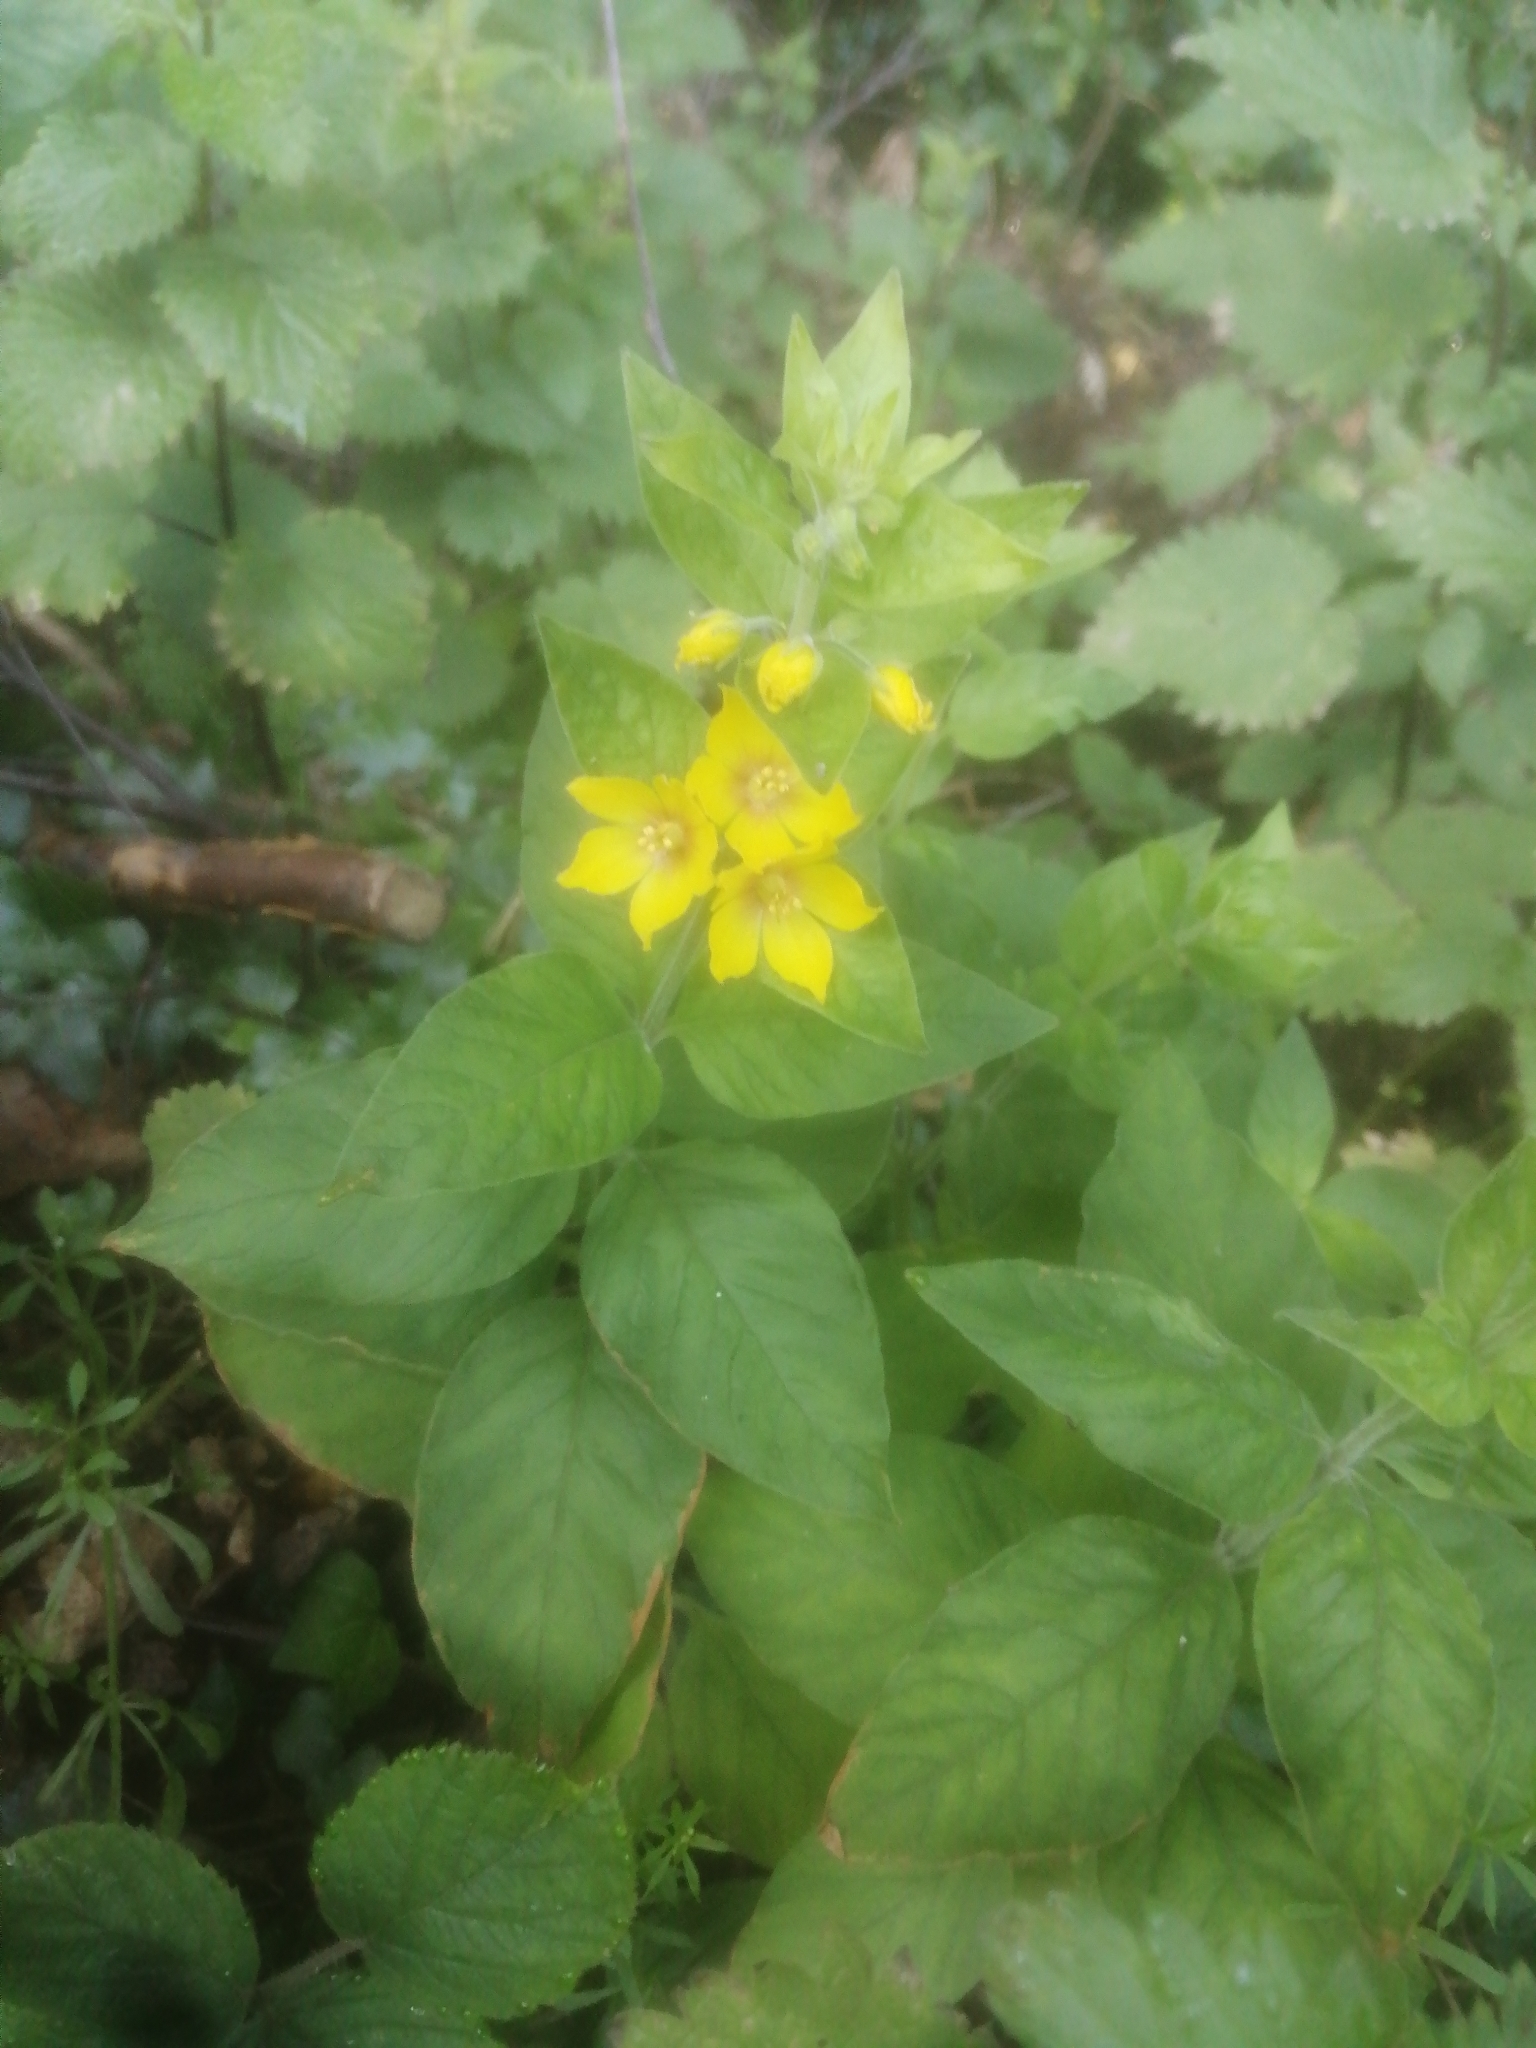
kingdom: Plantae
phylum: Tracheophyta
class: Magnoliopsida
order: Ericales
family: Primulaceae
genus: Lysimachia
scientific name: Lysimachia punctata
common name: Dotted loosestrife
